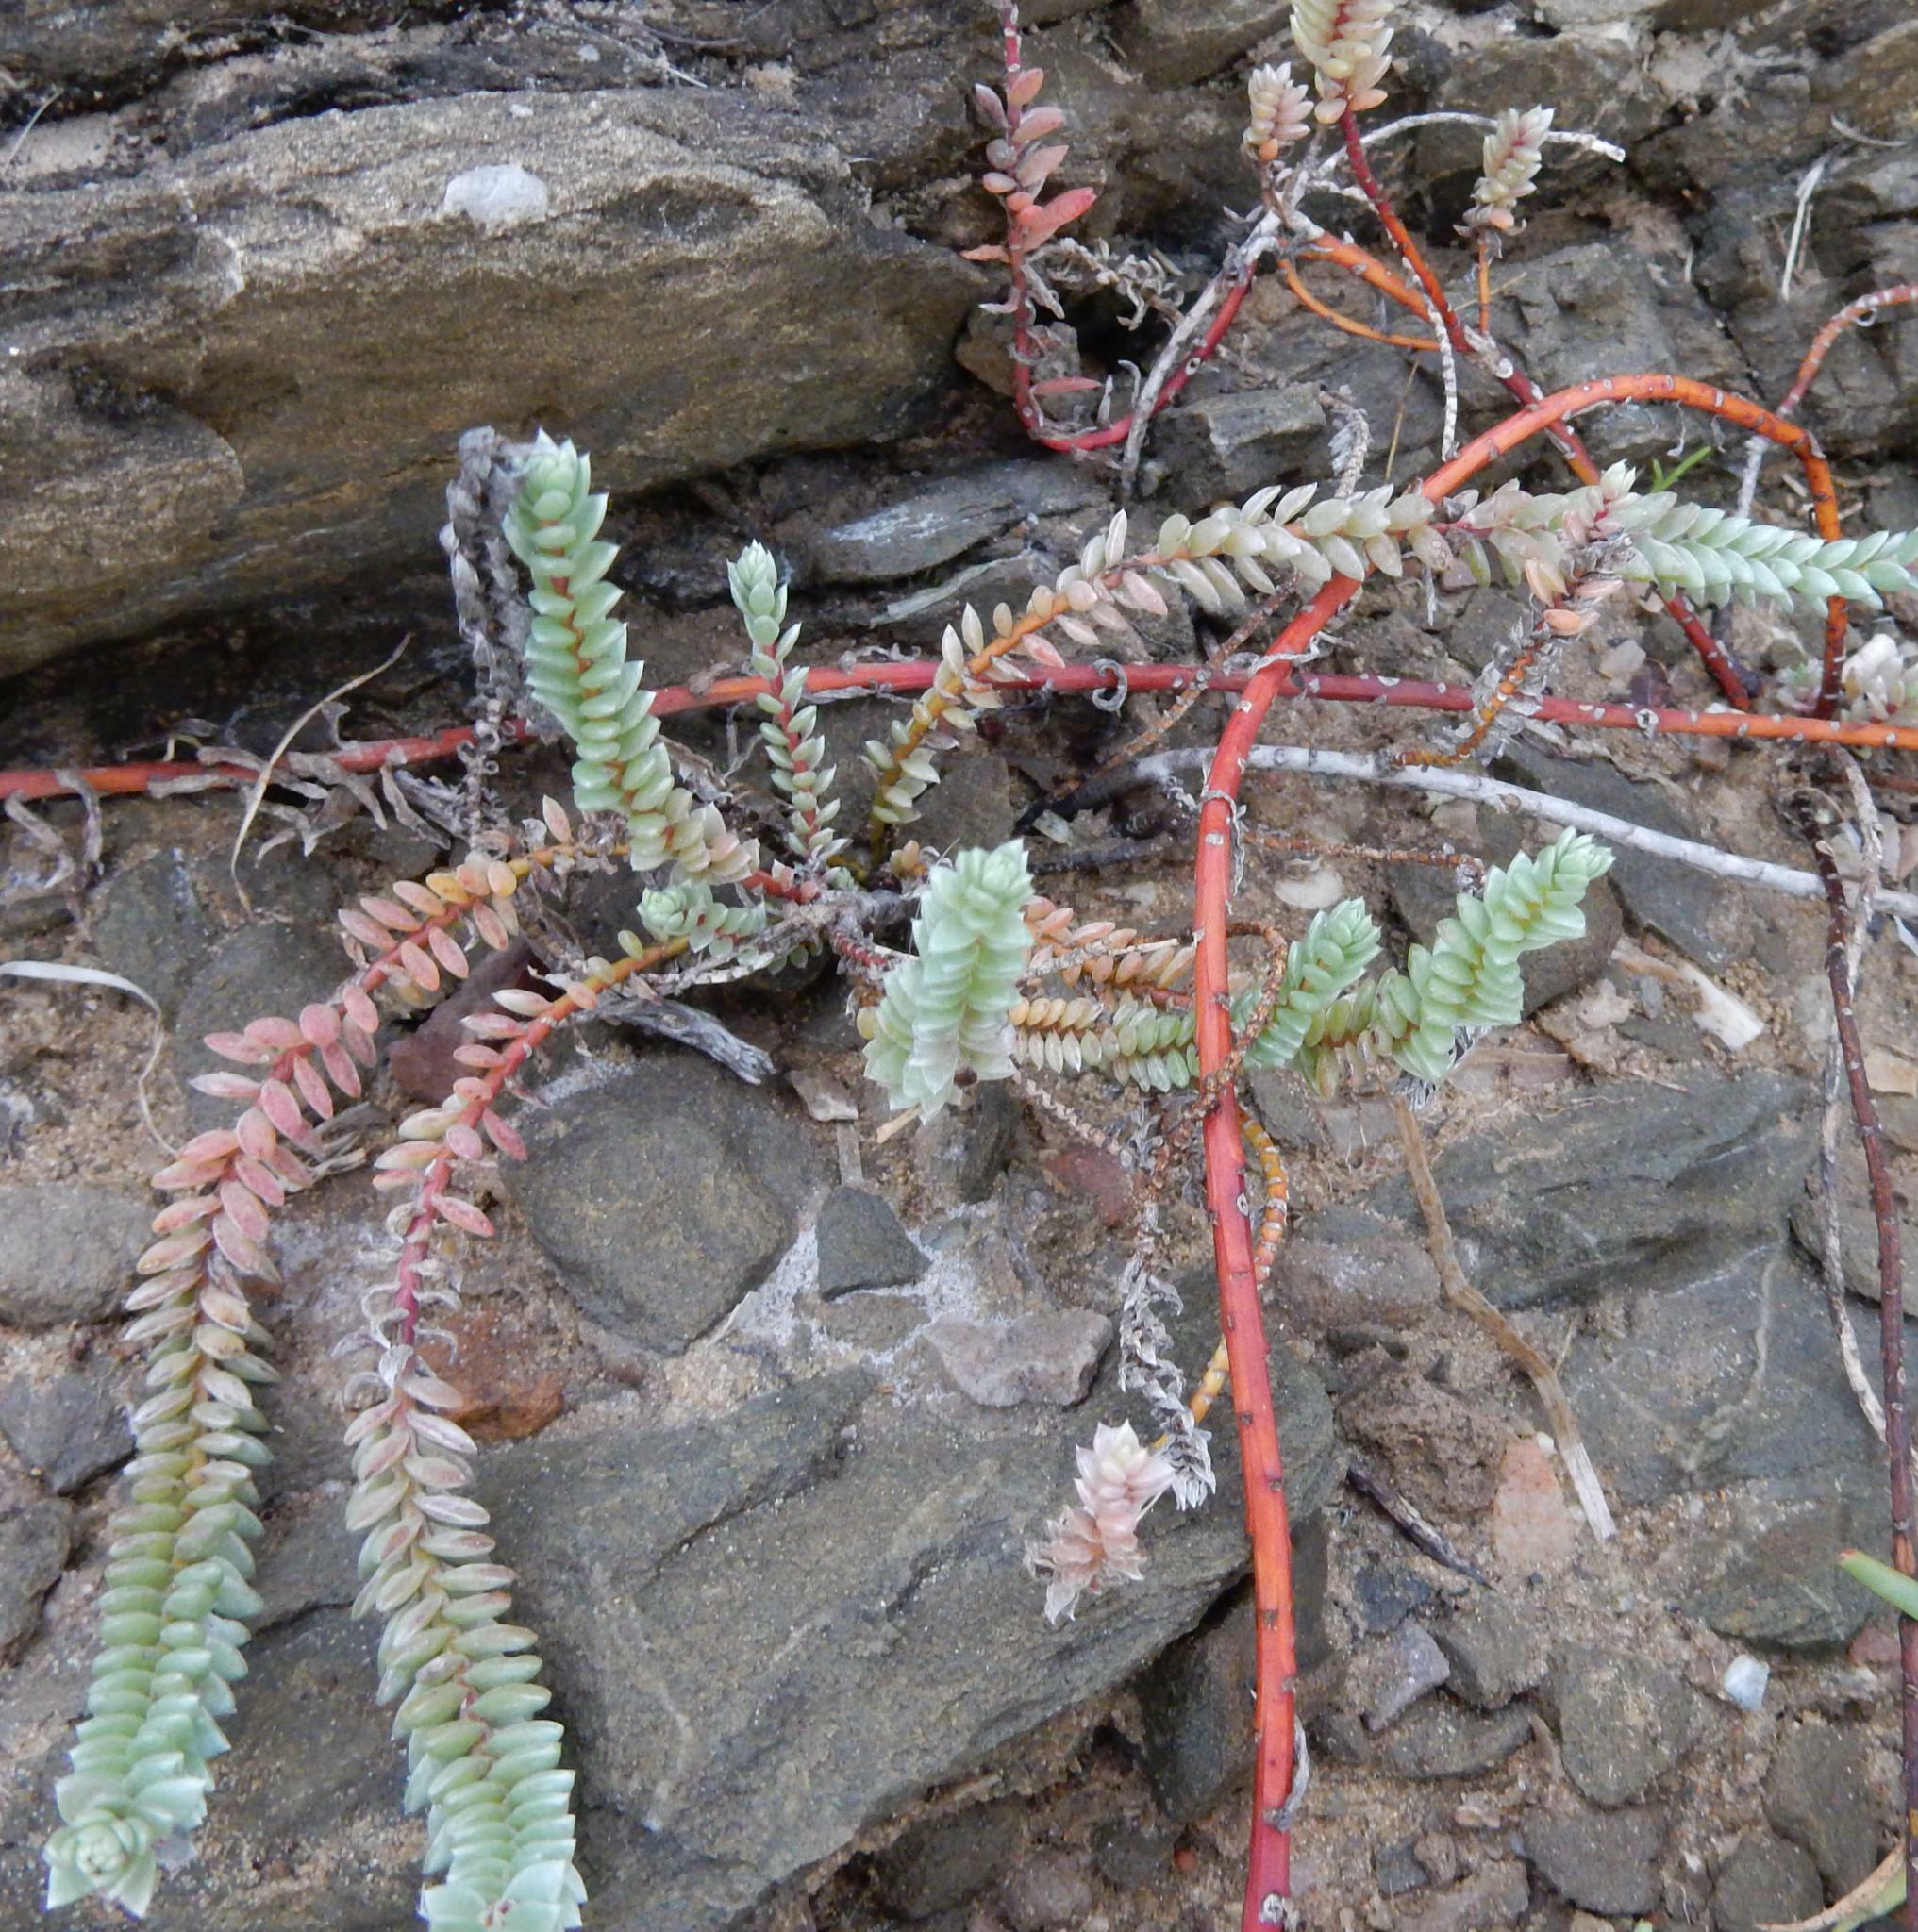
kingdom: Plantae
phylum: Tracheophyta
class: Magnoliopsida
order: Caryophyllales
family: Amaranthaceae
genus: Chenolea
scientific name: Chenolea diffusa
